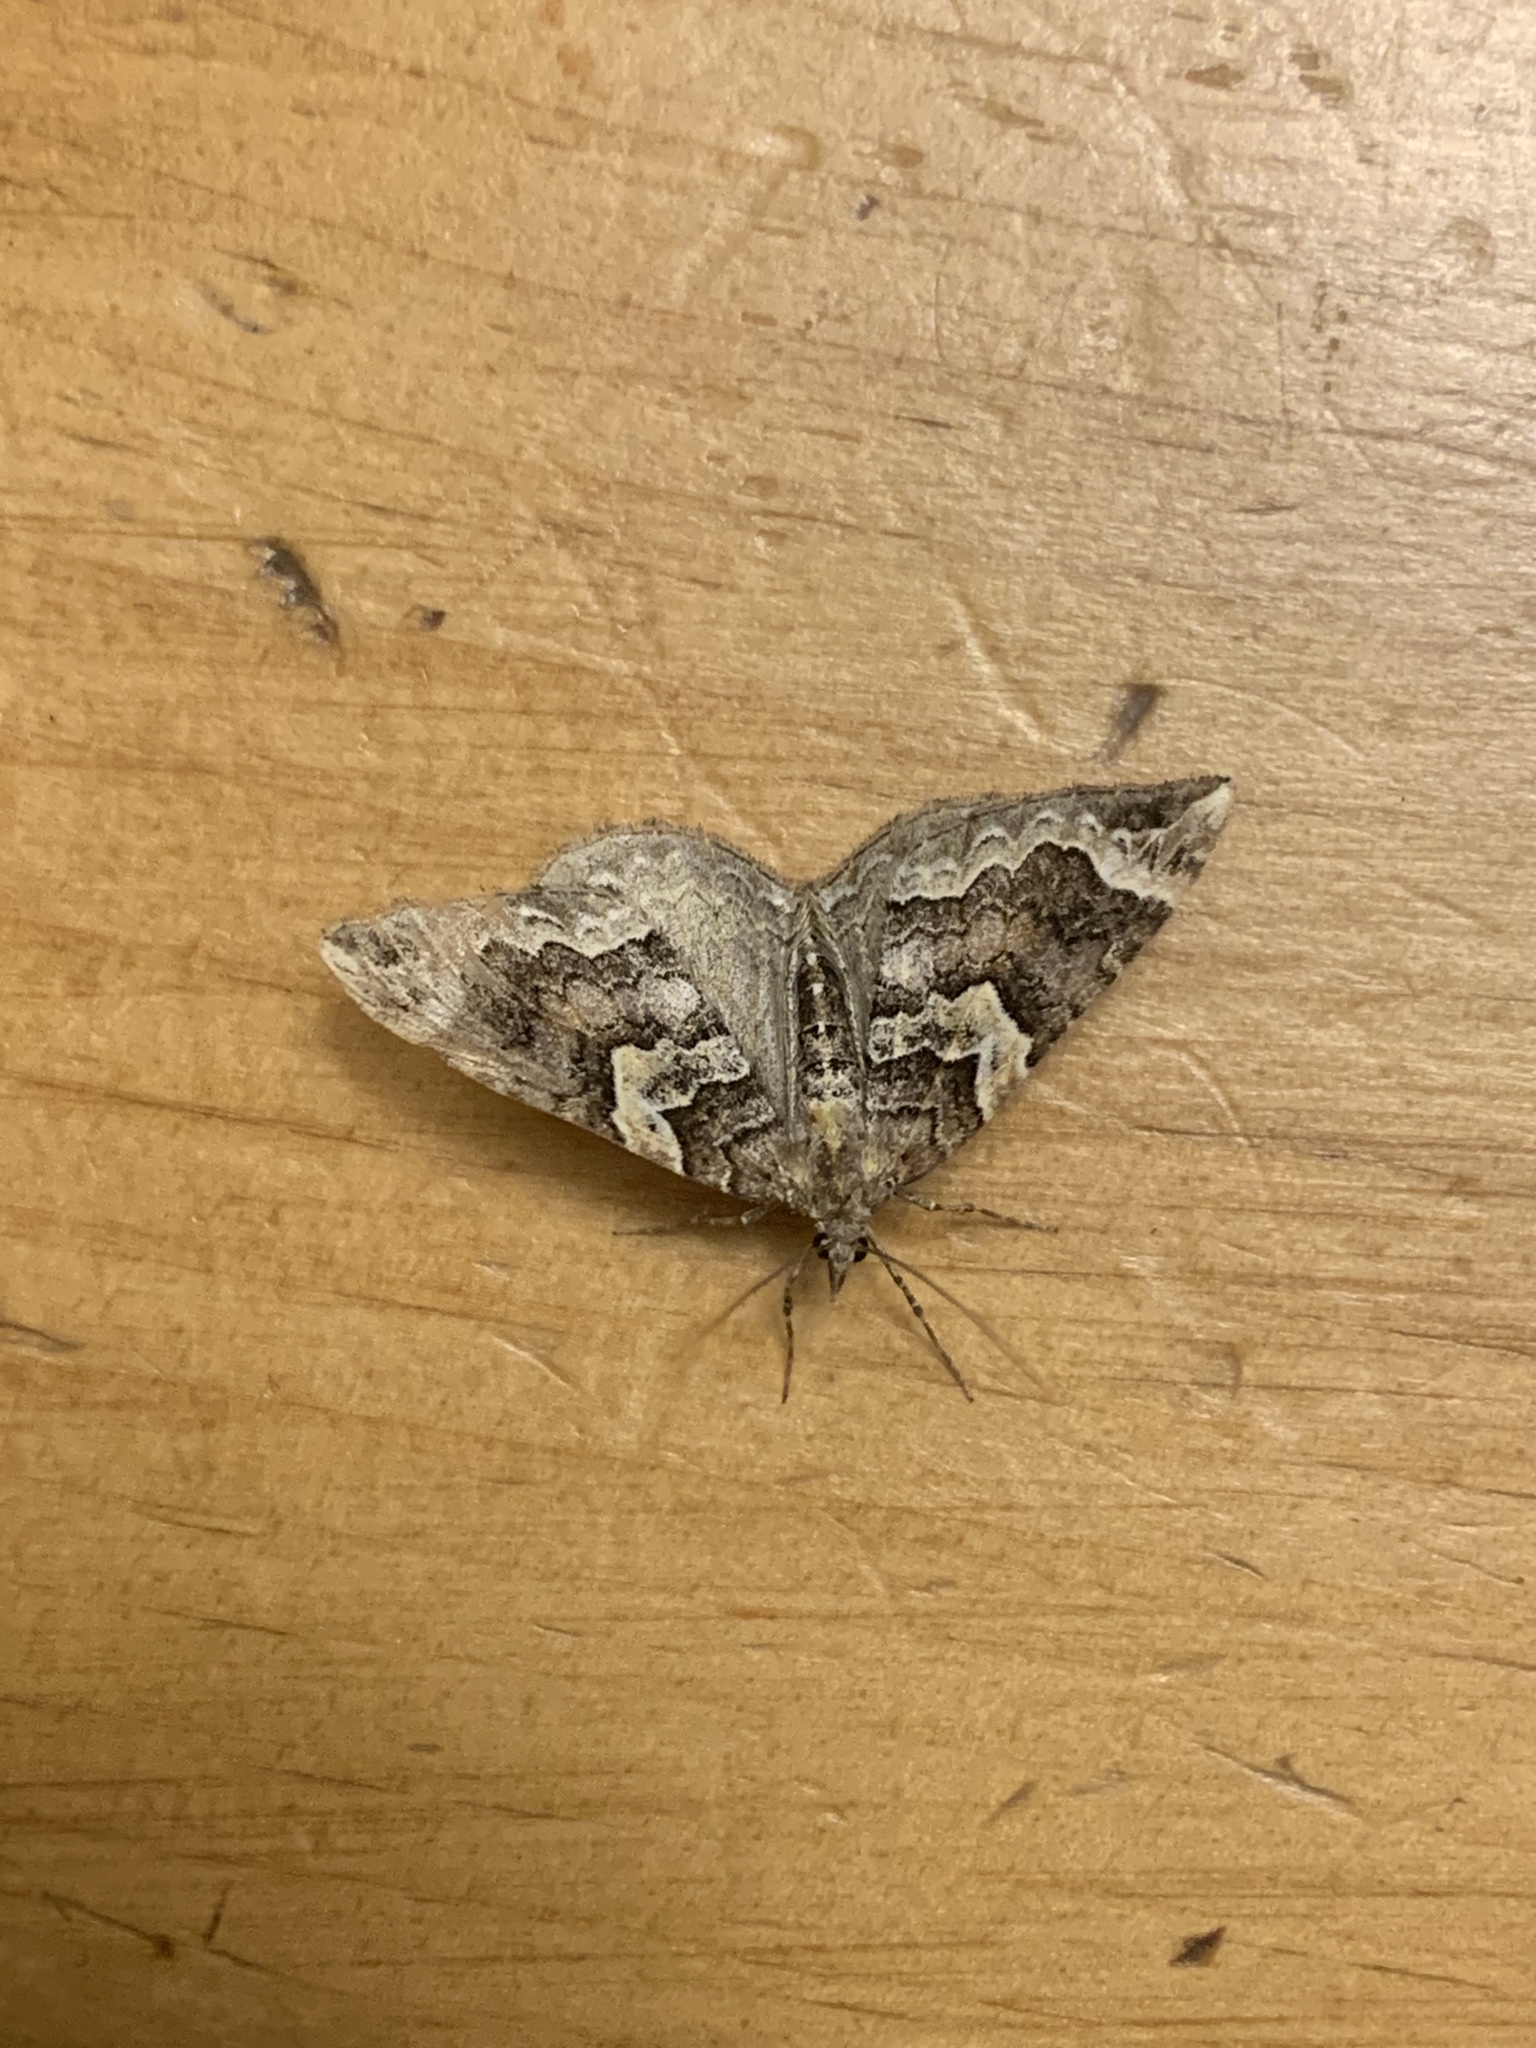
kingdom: Animalia
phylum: Arthropoda
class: Insecta
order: Lepidoptera
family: Geometridae
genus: Eulithis
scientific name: Eulithis xylina
